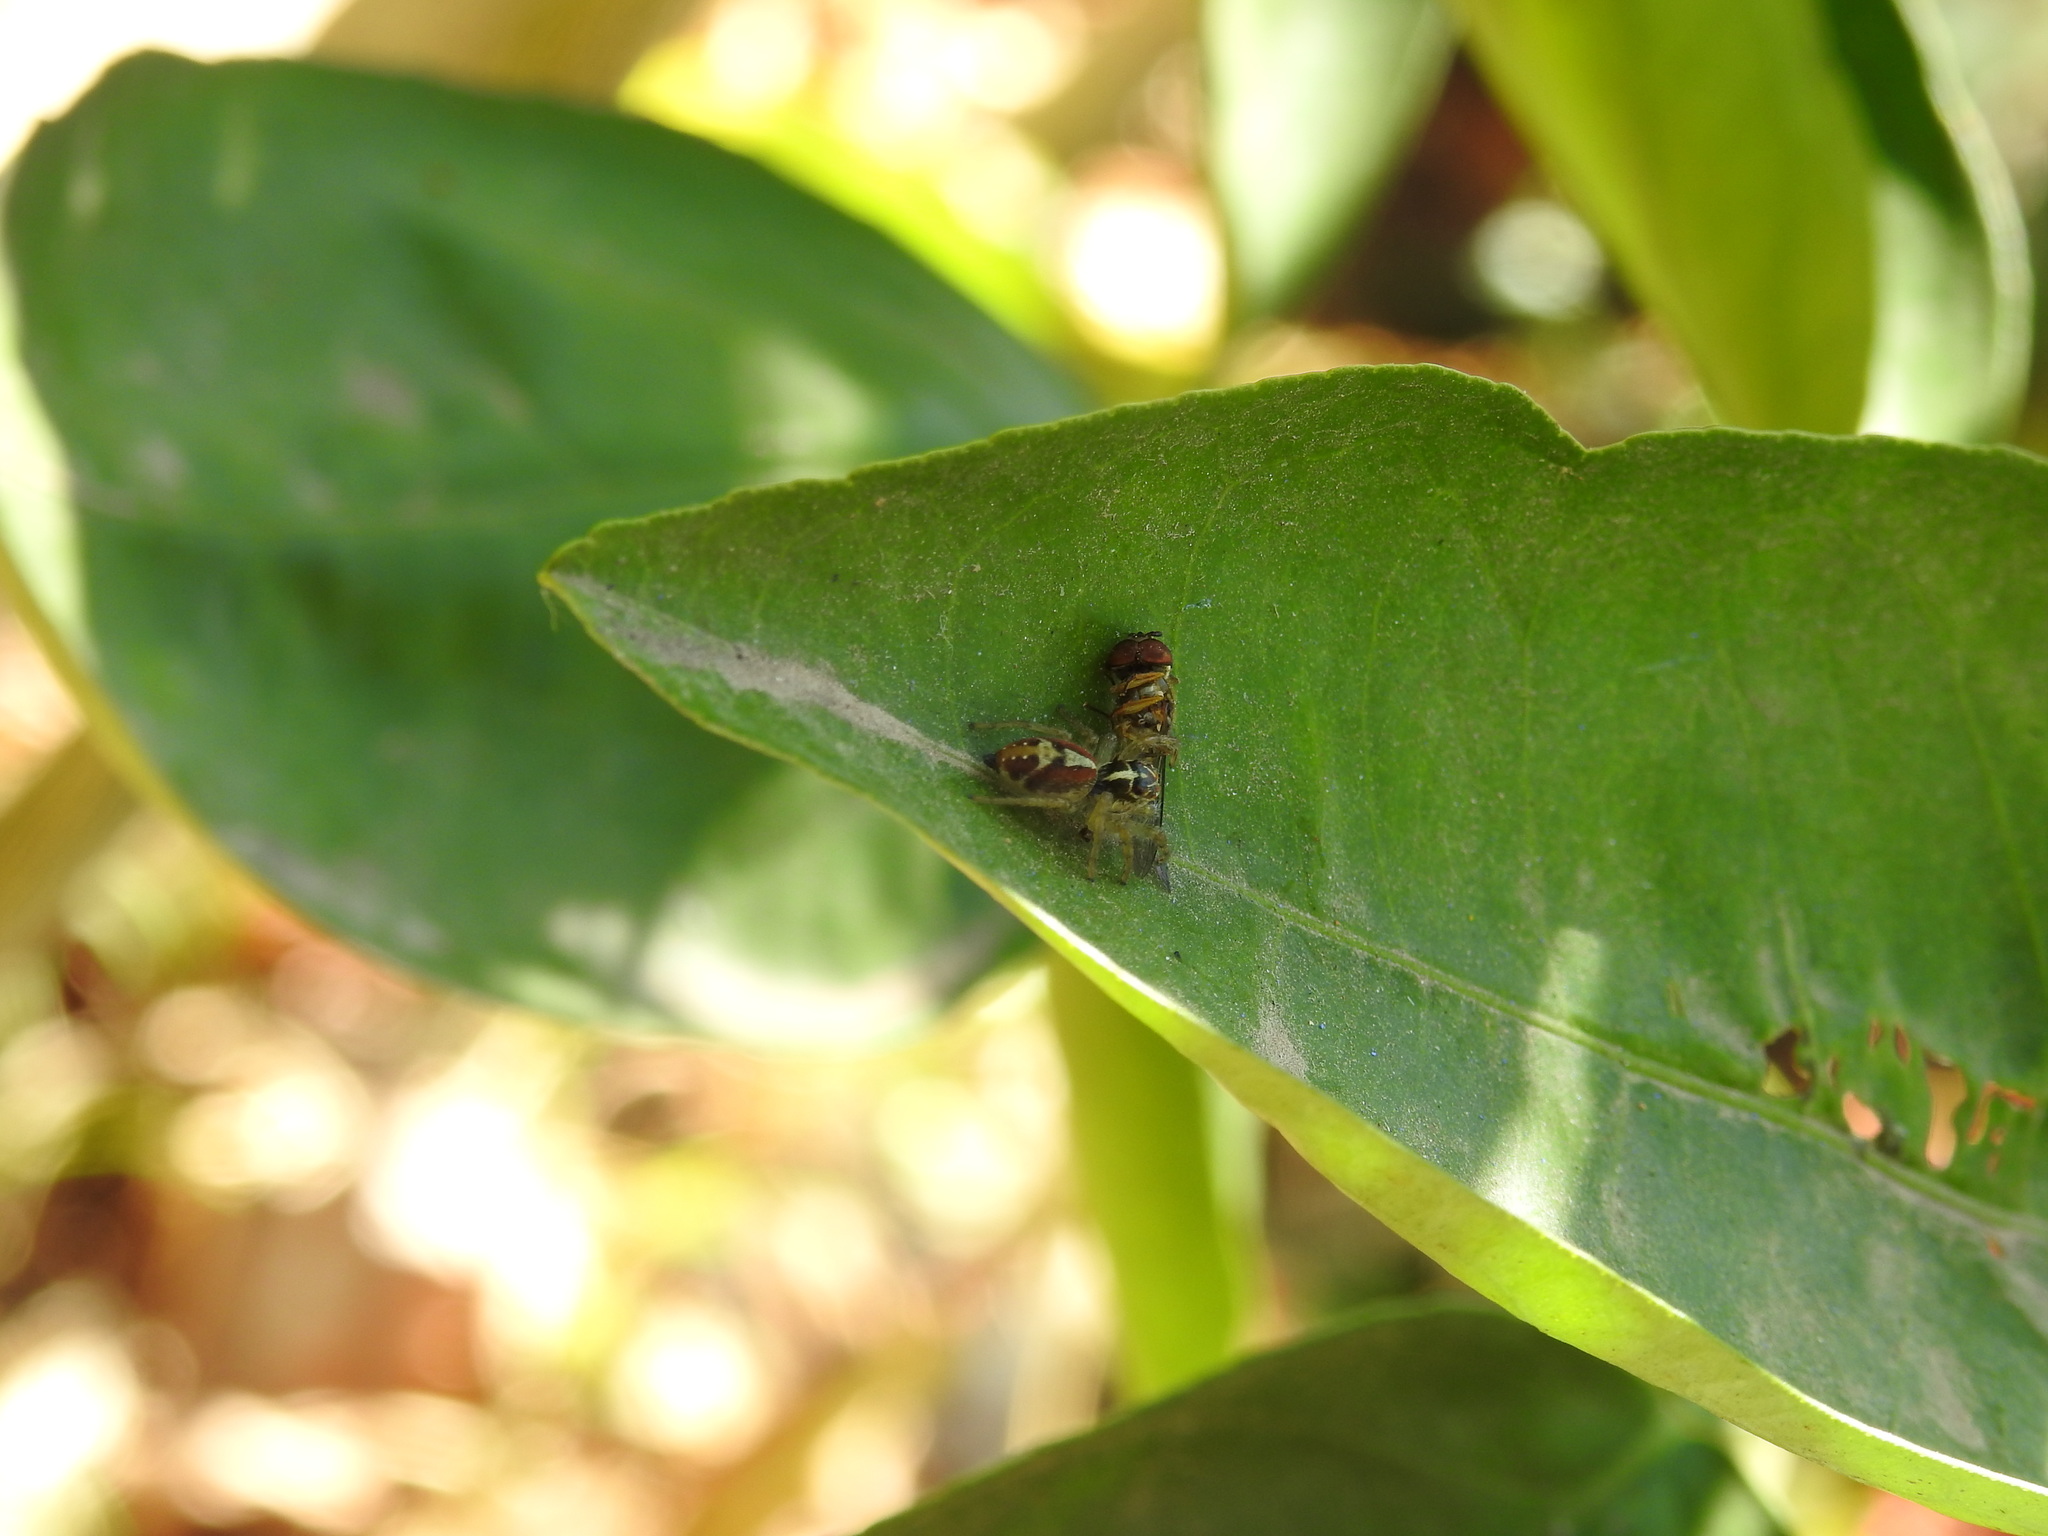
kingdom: Animalia
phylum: Arthropoda
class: Arachnida
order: Araneae
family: Salticidae
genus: Frigga
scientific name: Frigga quintensis
